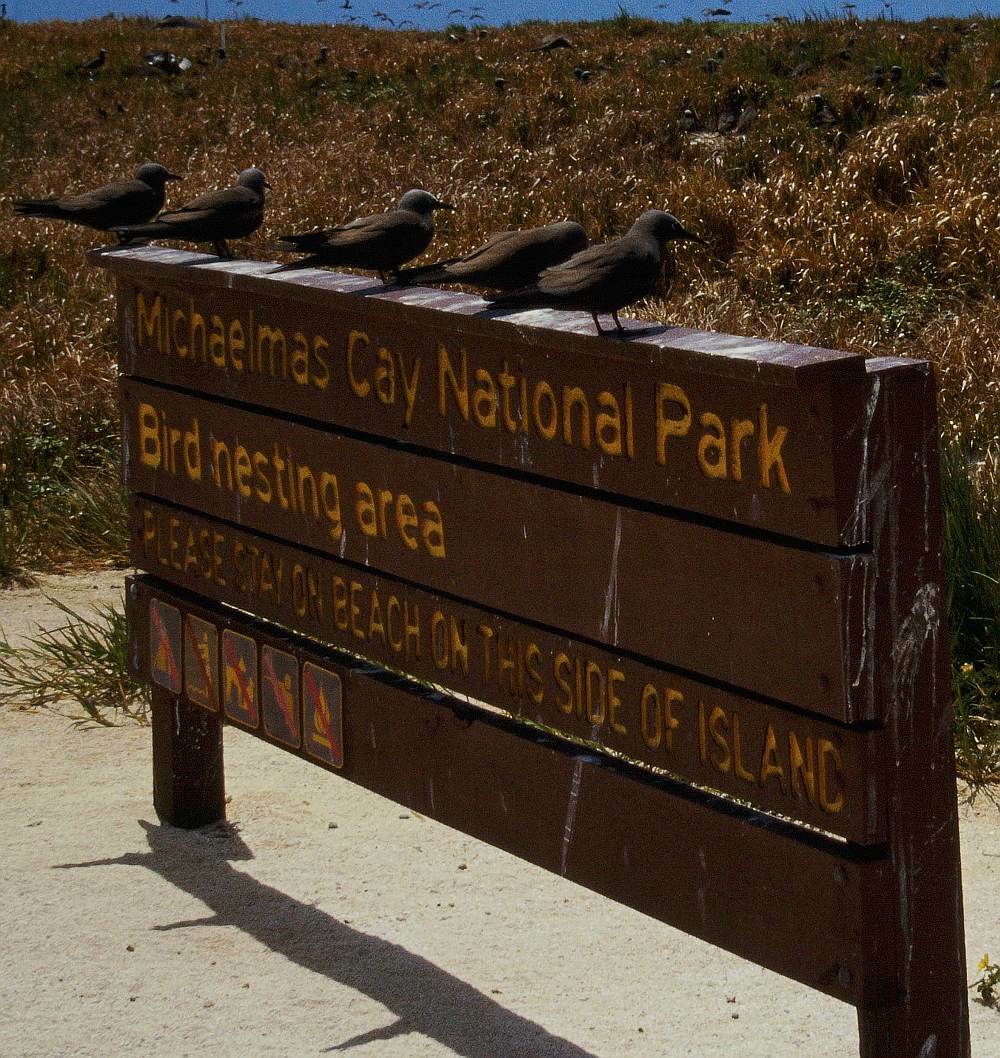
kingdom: Animalia
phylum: Chordata
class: Aves
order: Charadriiformes
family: Laridae
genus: Anous
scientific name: Anous stolidus
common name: Brown noddy
